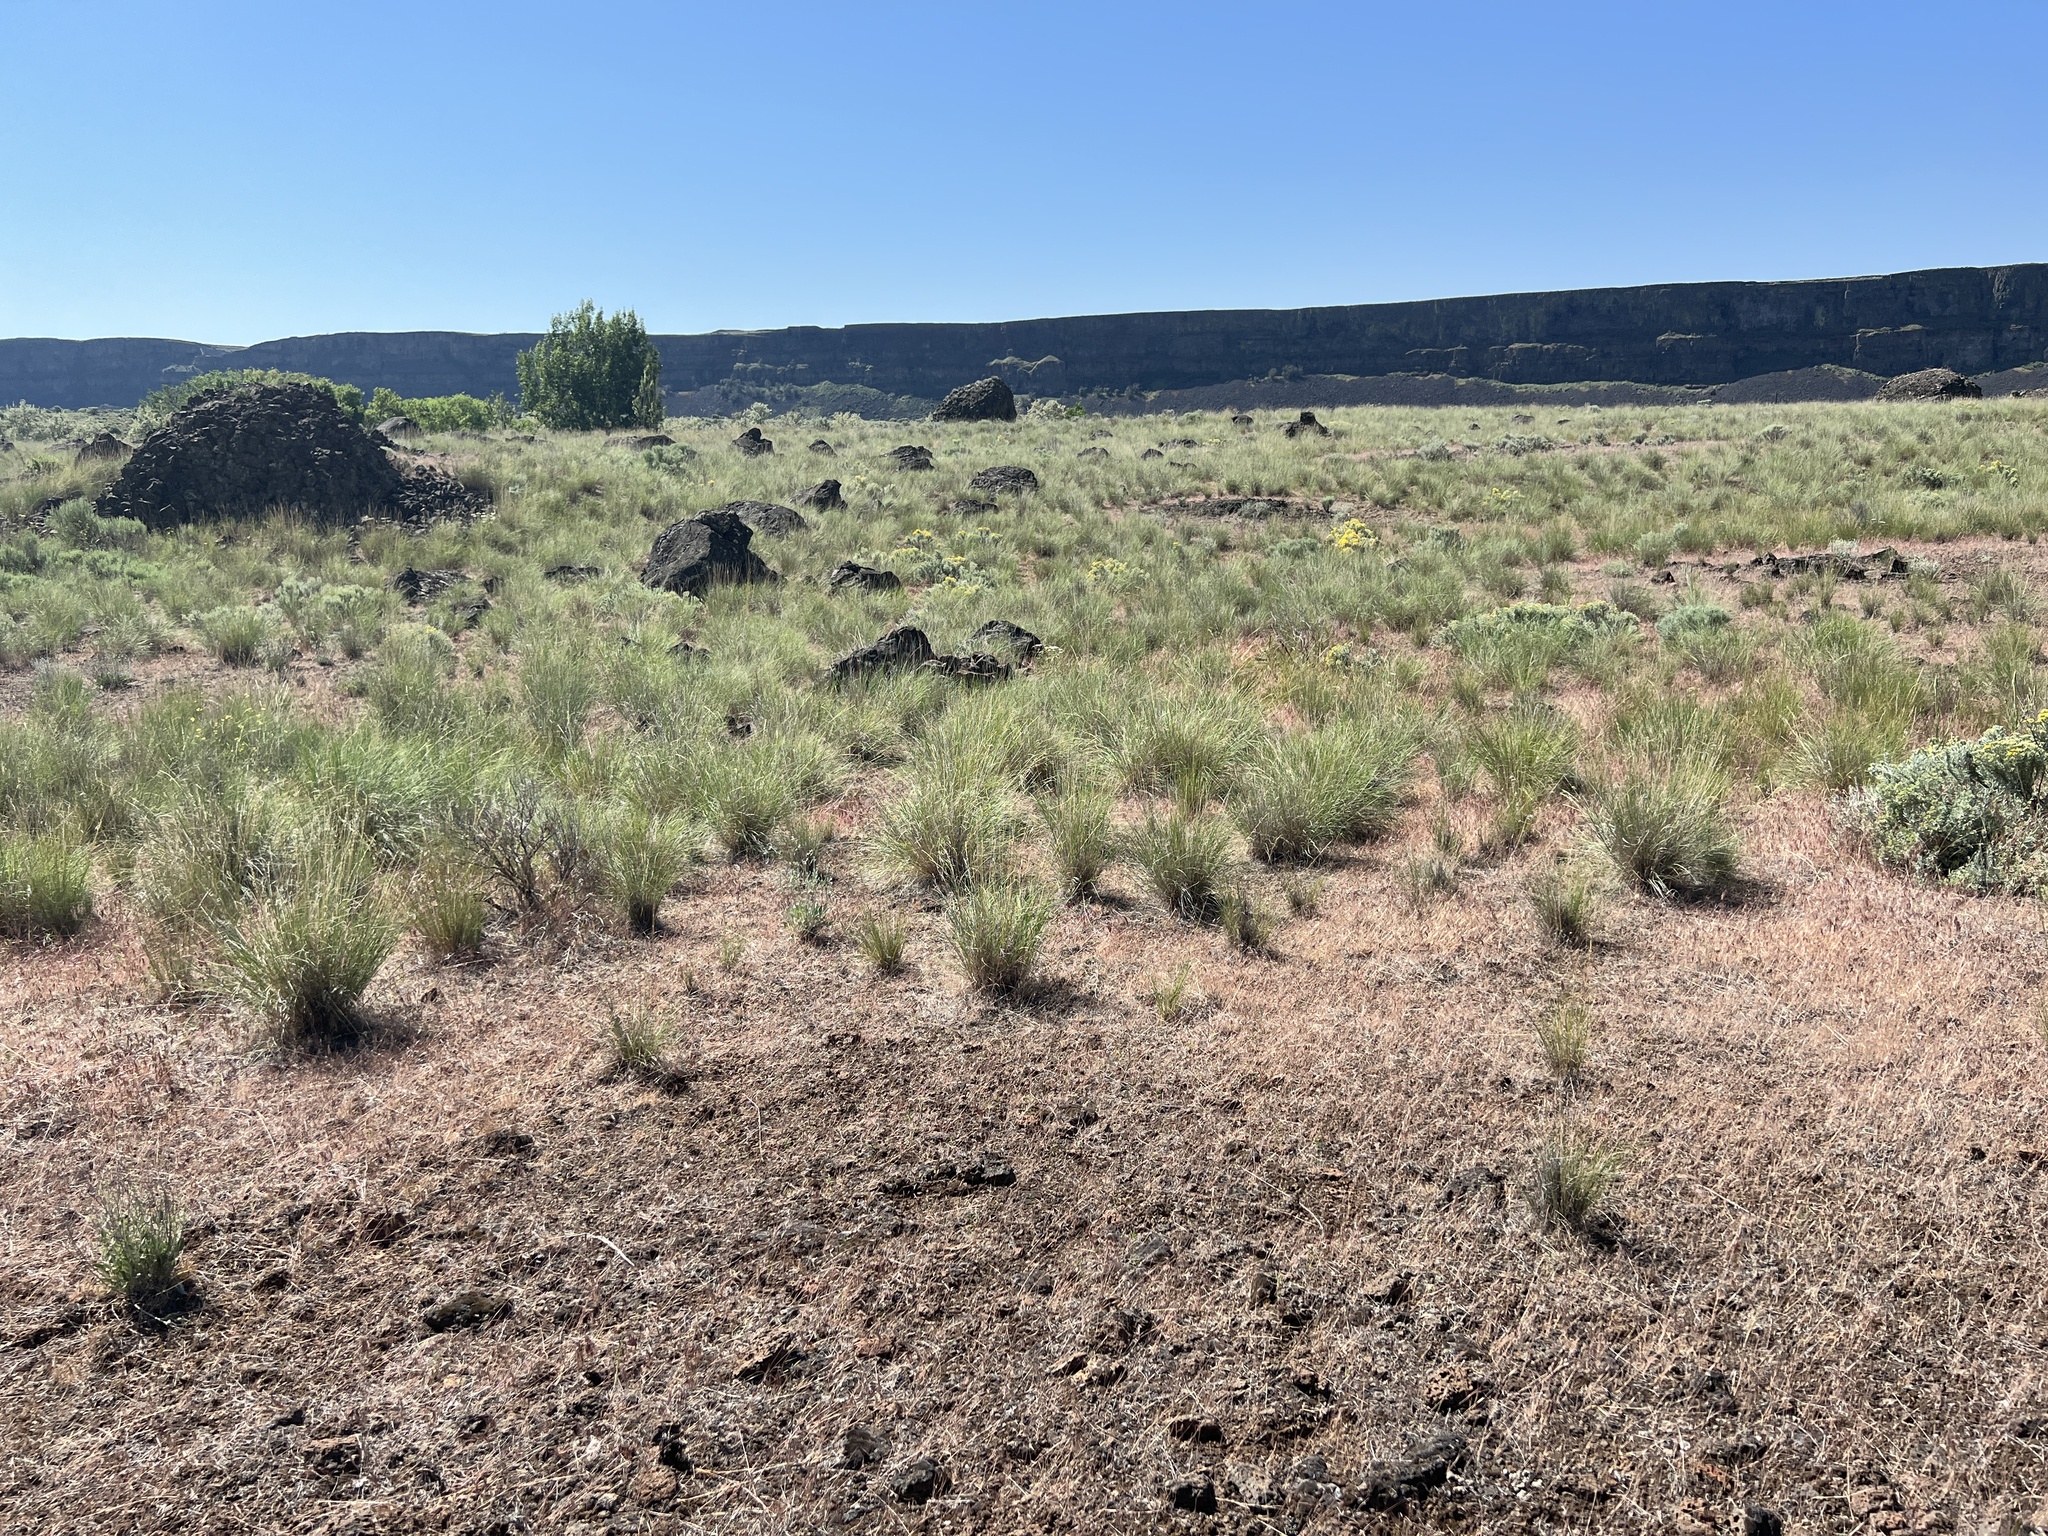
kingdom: Animalia
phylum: Chordata
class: Aves
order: Passeriformes
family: Icteridae
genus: Sturnella
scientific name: Sturnella neglecta
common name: Western meadowlark
